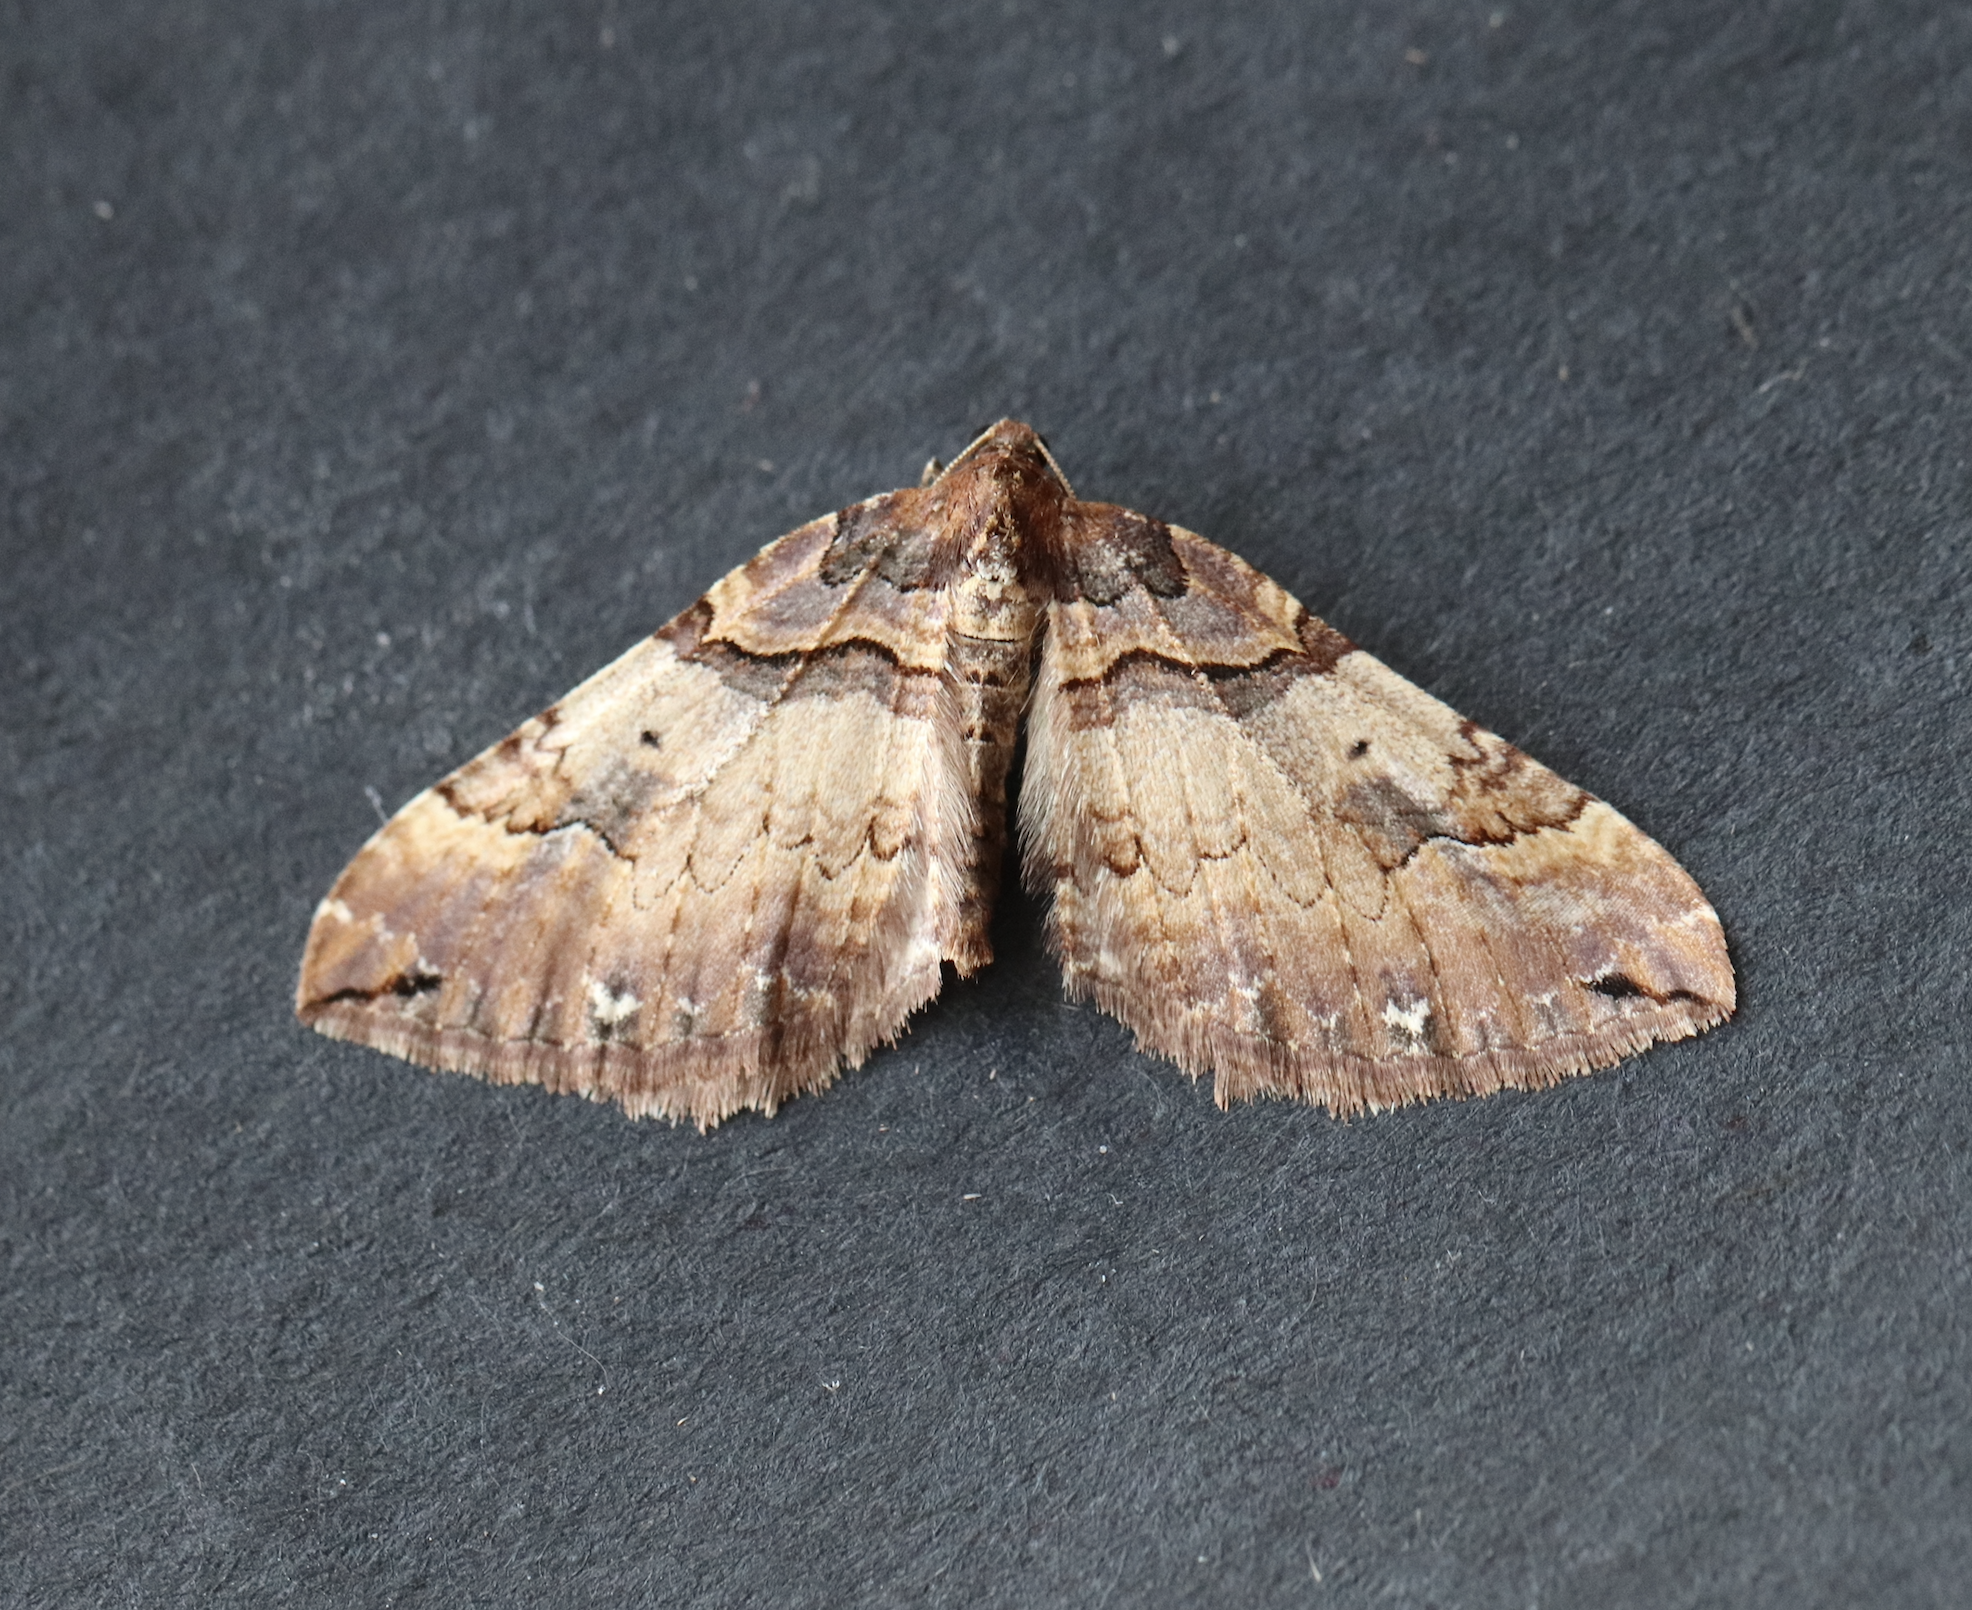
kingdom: Animalia
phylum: Arthropoda
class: Insecta
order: Lepidoptera
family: Geometridae
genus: Anticlea
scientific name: Anticlea badiata
